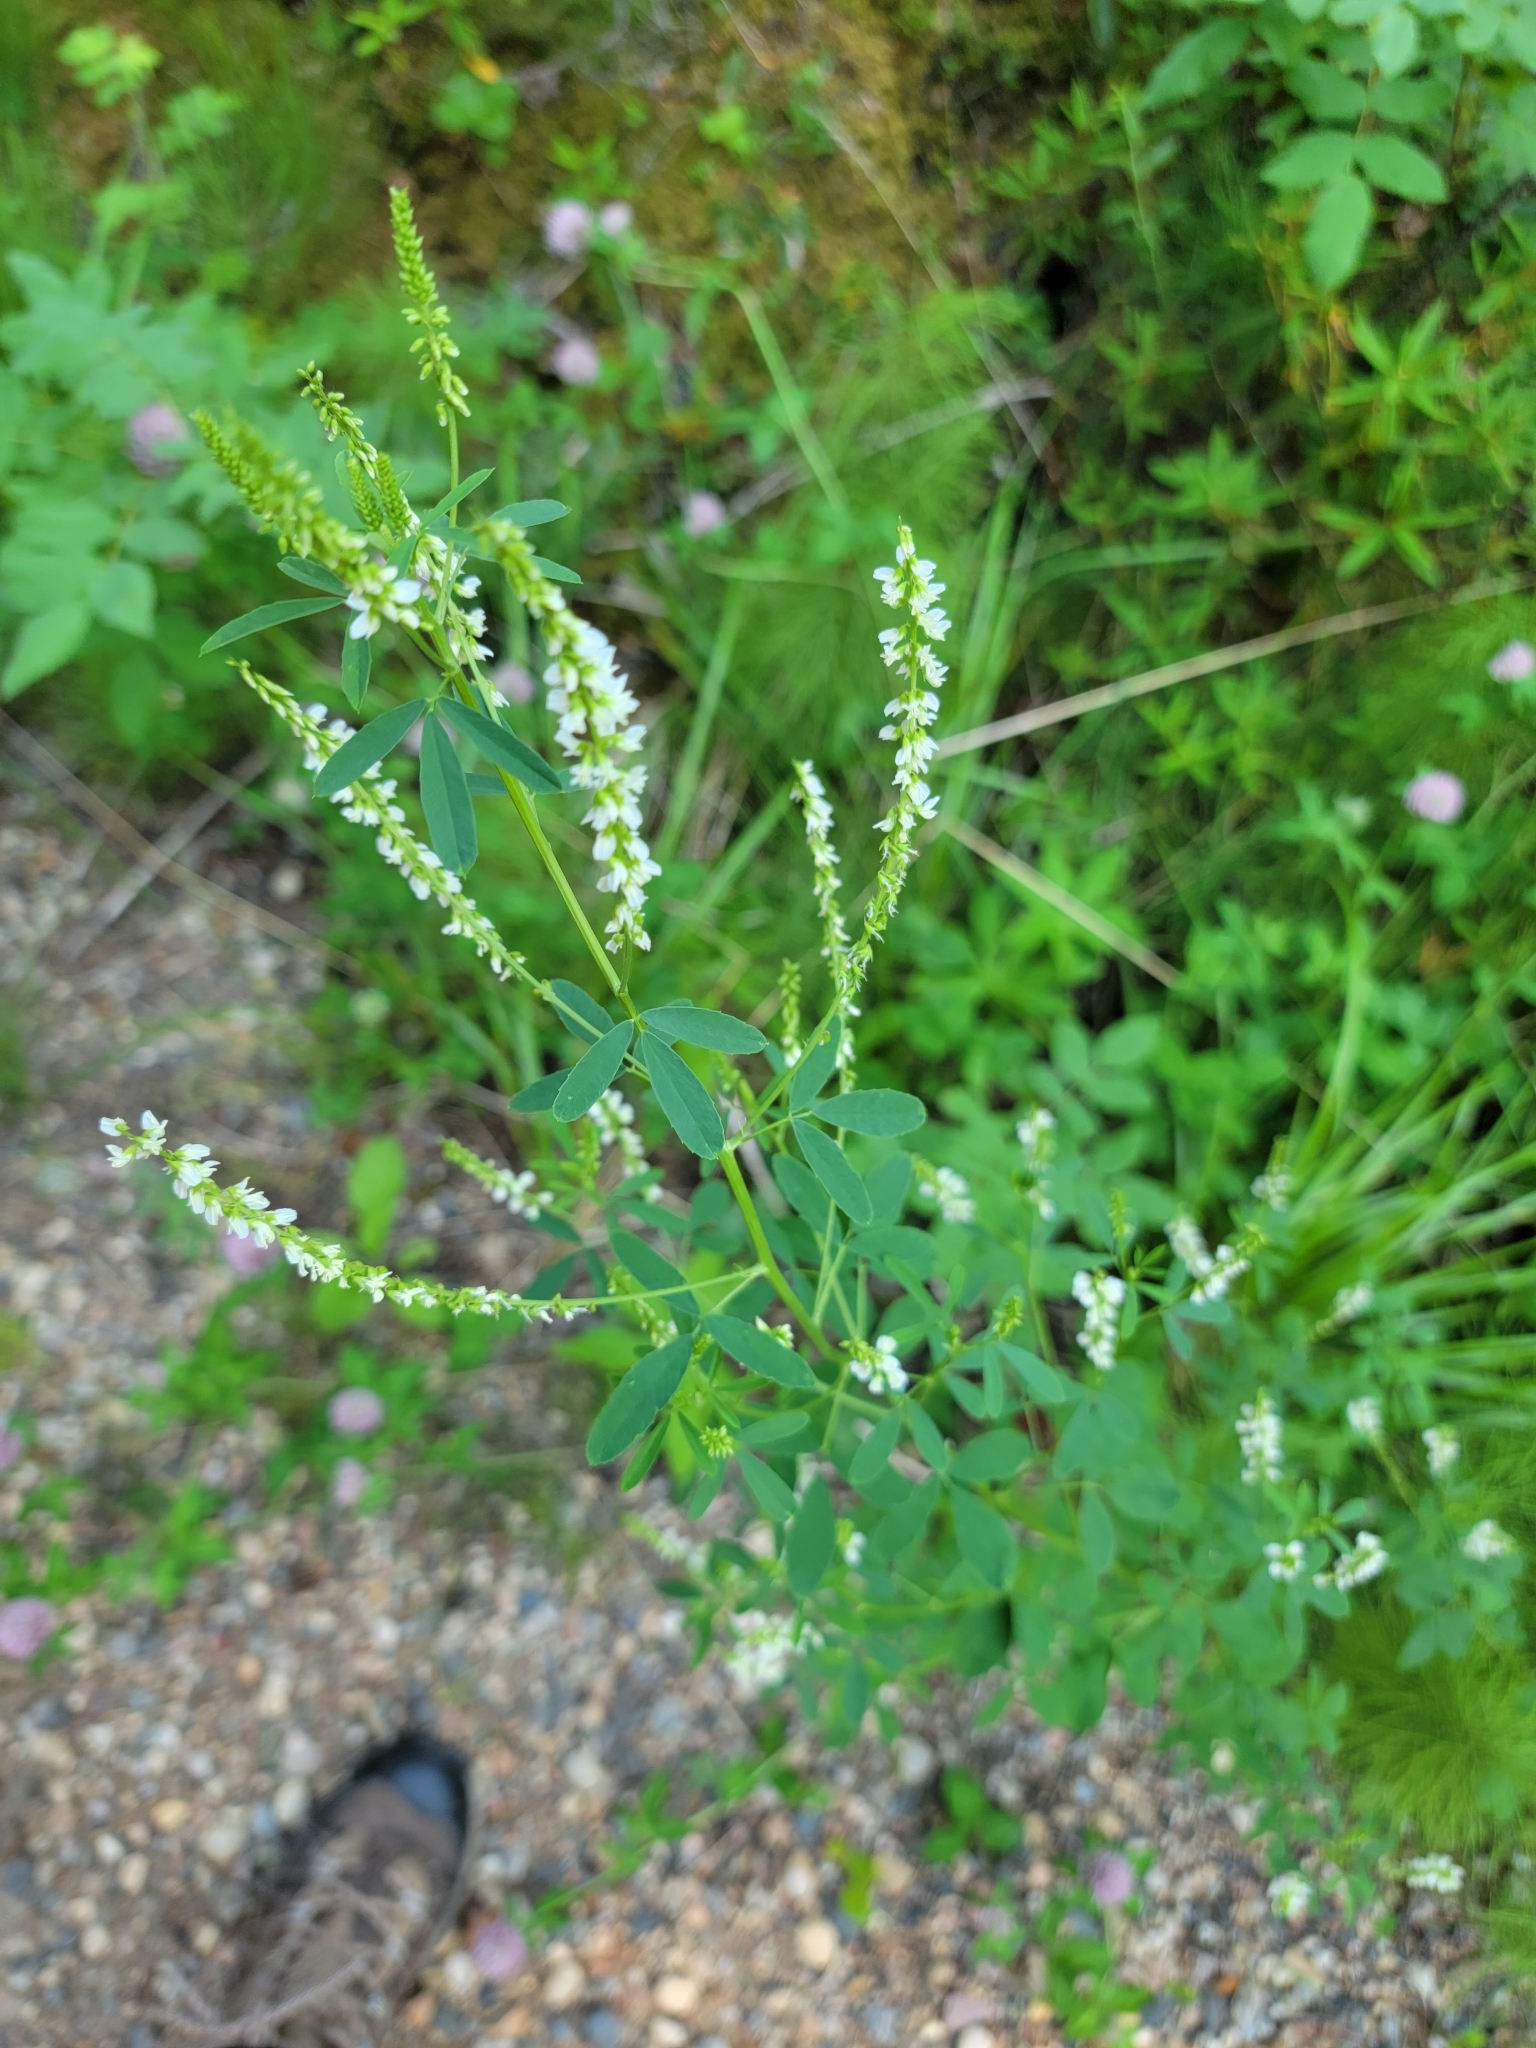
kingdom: Plantae
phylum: Tracheophyta
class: Magnoliopsida
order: Fabales
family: Fabaceae
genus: Melilotus
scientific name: Melilotus albus
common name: White melilot
